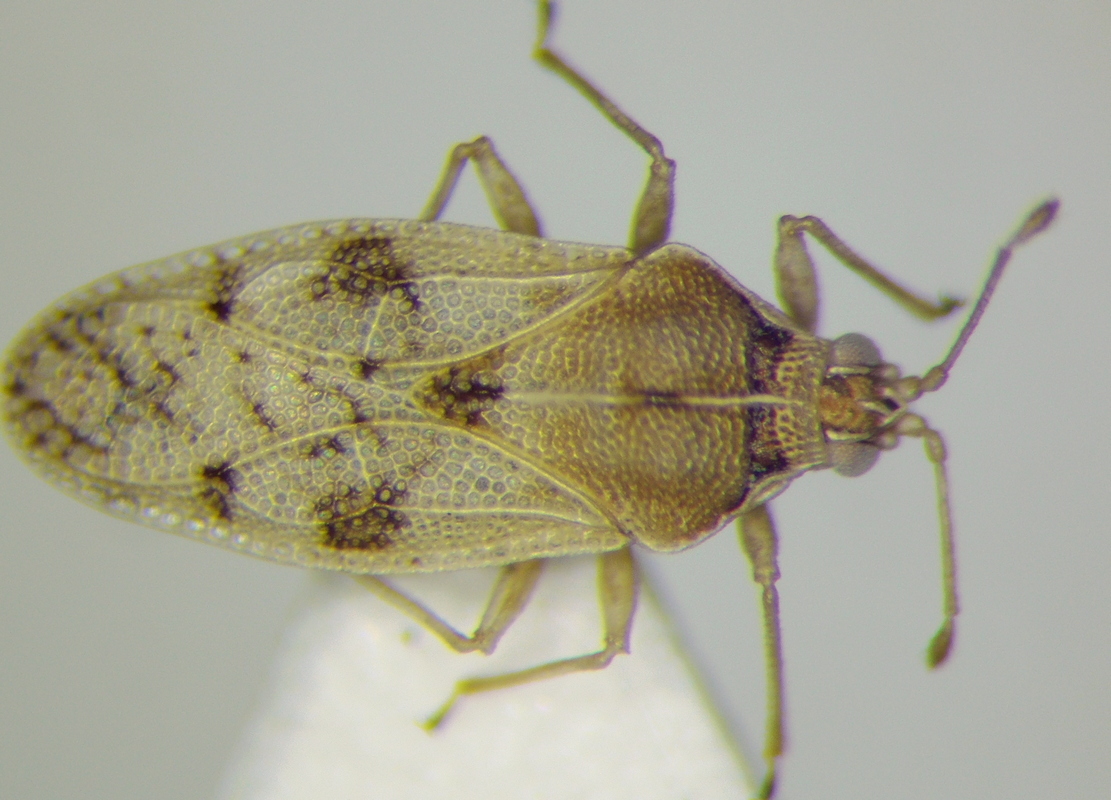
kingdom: Animalia
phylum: Arthropoda
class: Insecta
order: Hemiptera
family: Tingidae
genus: Monosteira
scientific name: Monosteira unicostata
